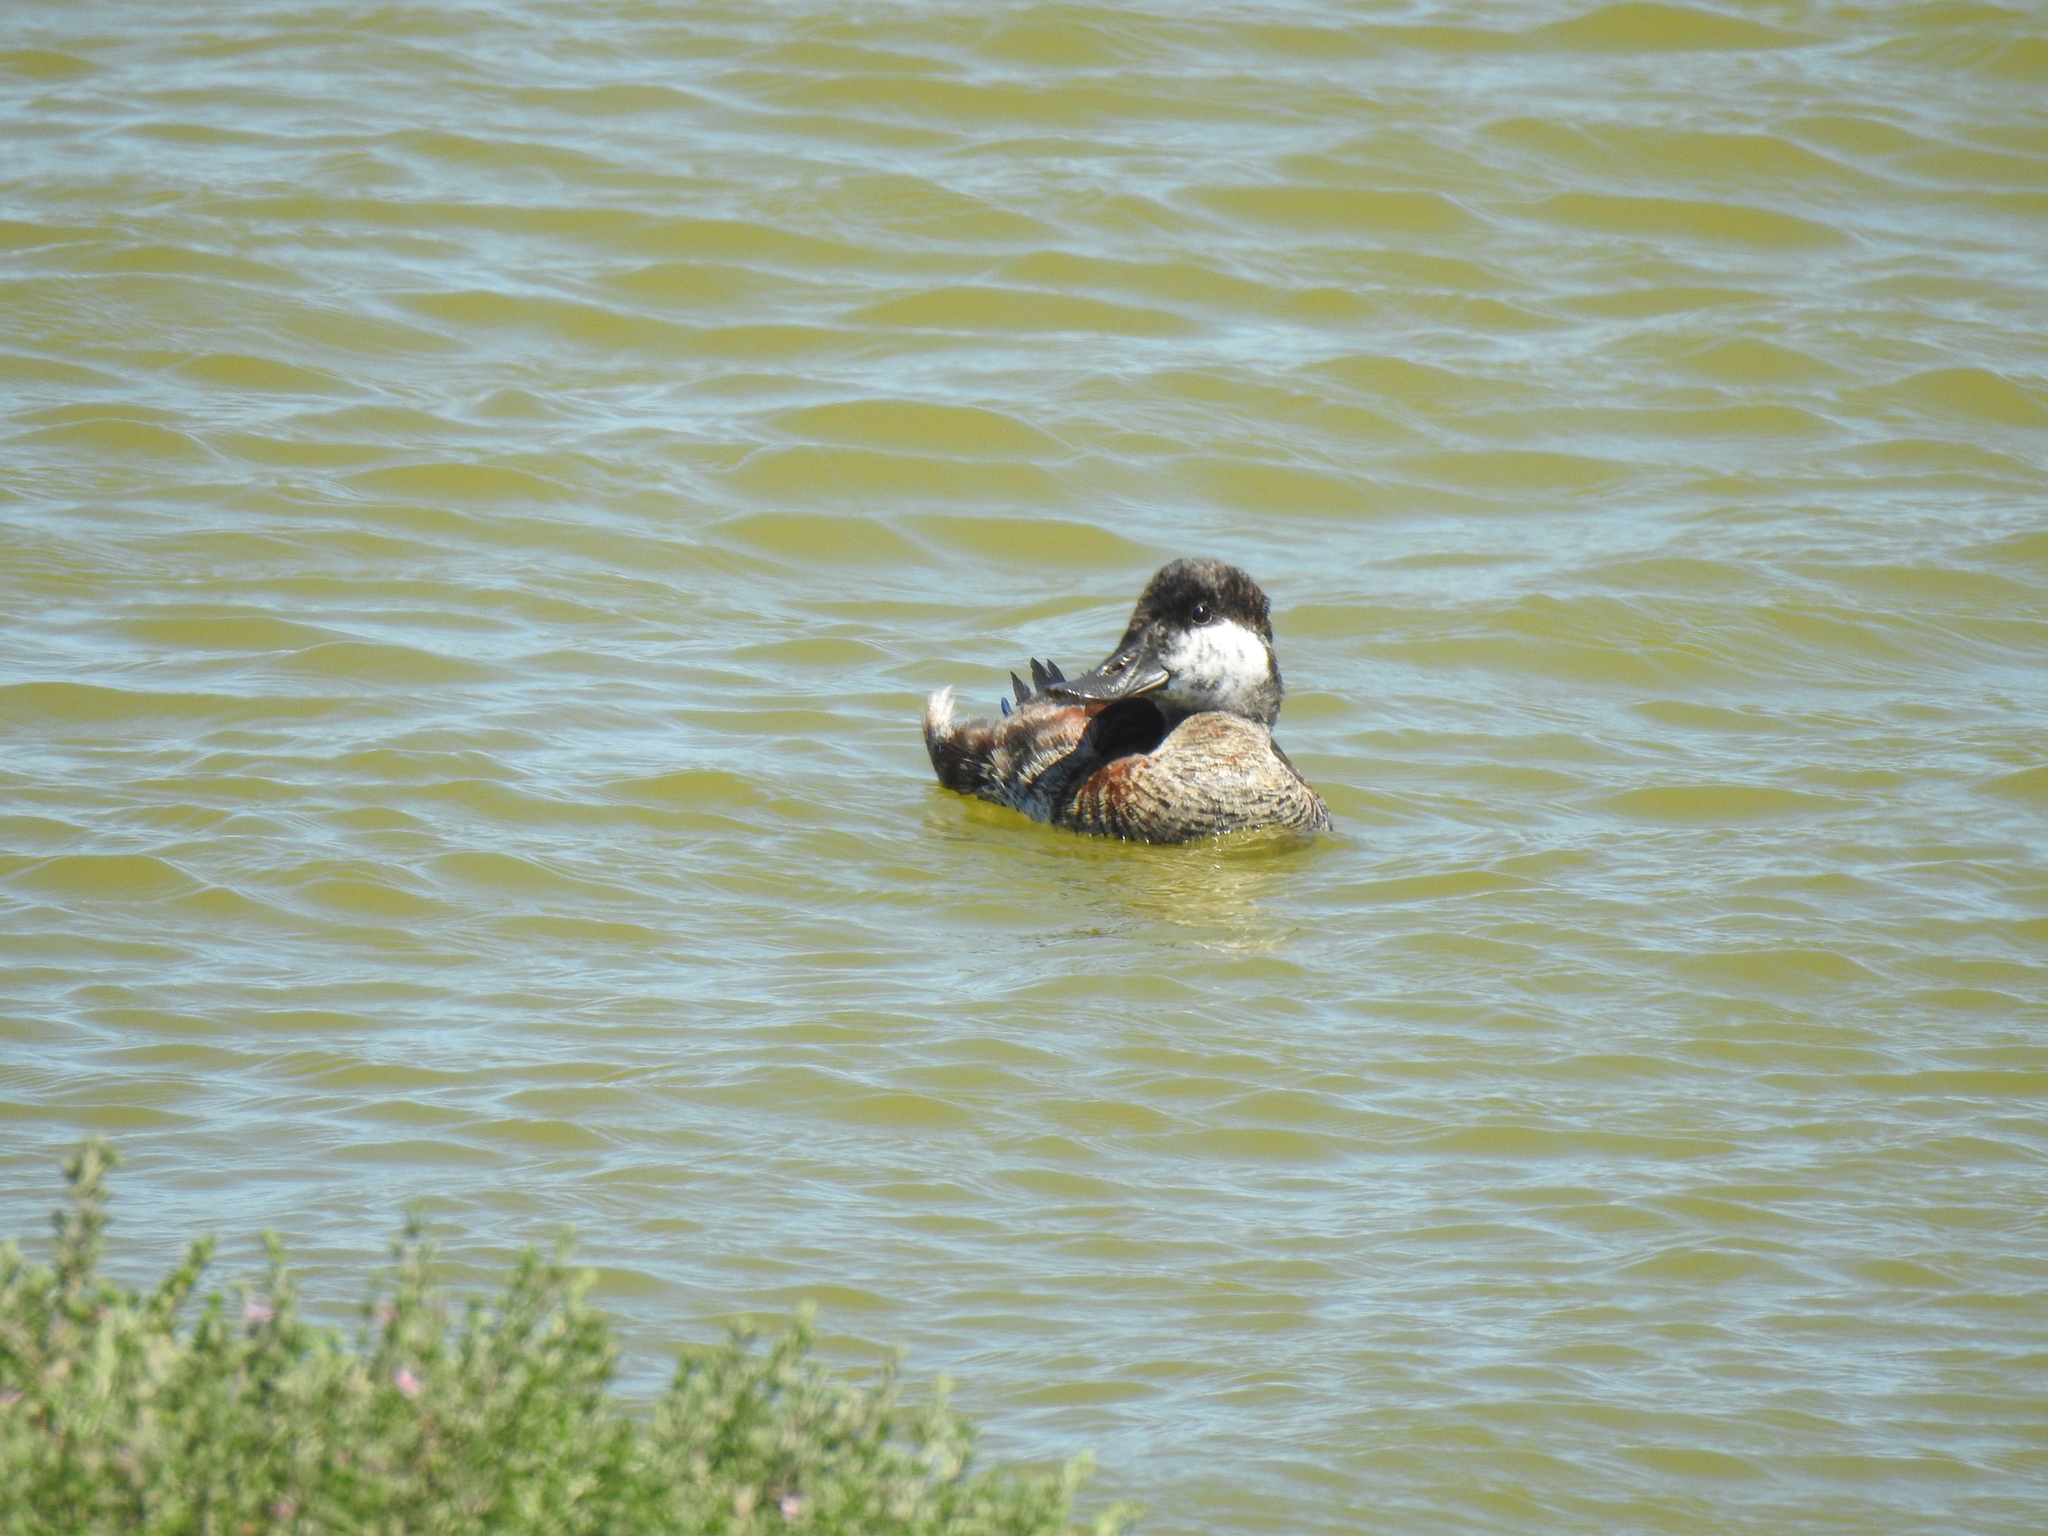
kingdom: Animalia
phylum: Chordata
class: Aves
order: Anseriformes
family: Anatidae
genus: Oxyura
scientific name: Oxyura jamaicensis
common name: Ruddy duck
